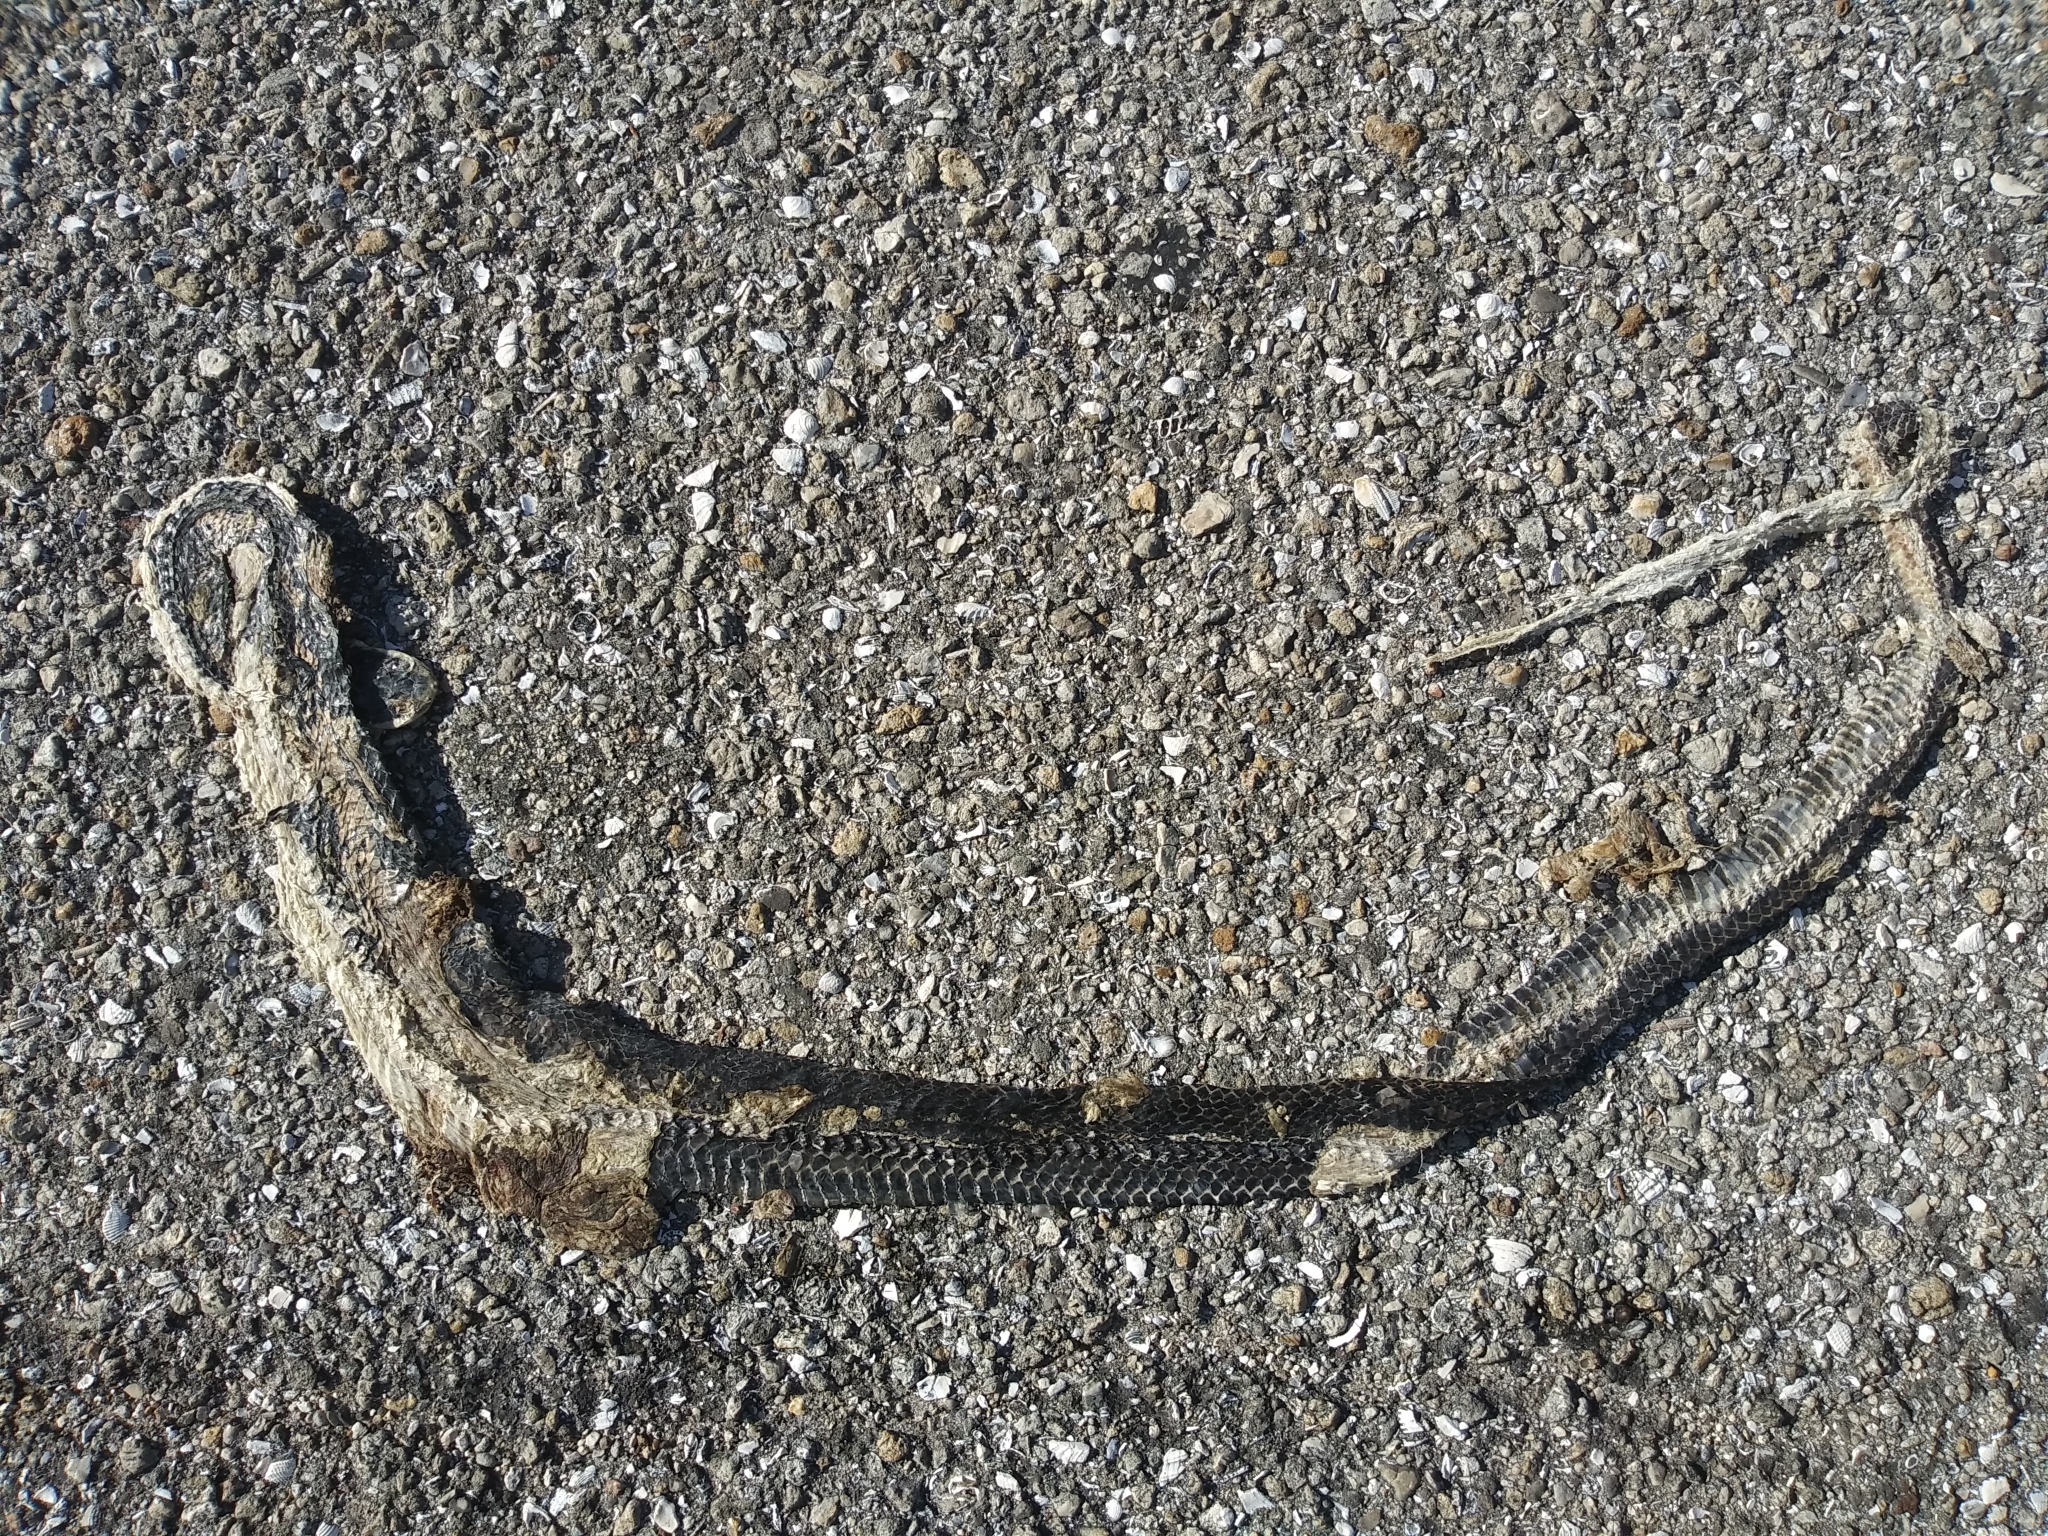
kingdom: Animalia
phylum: Chordata
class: Squamata
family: Colubridae
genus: Coluber
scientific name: Coluber constrictor
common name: Eastern racer
